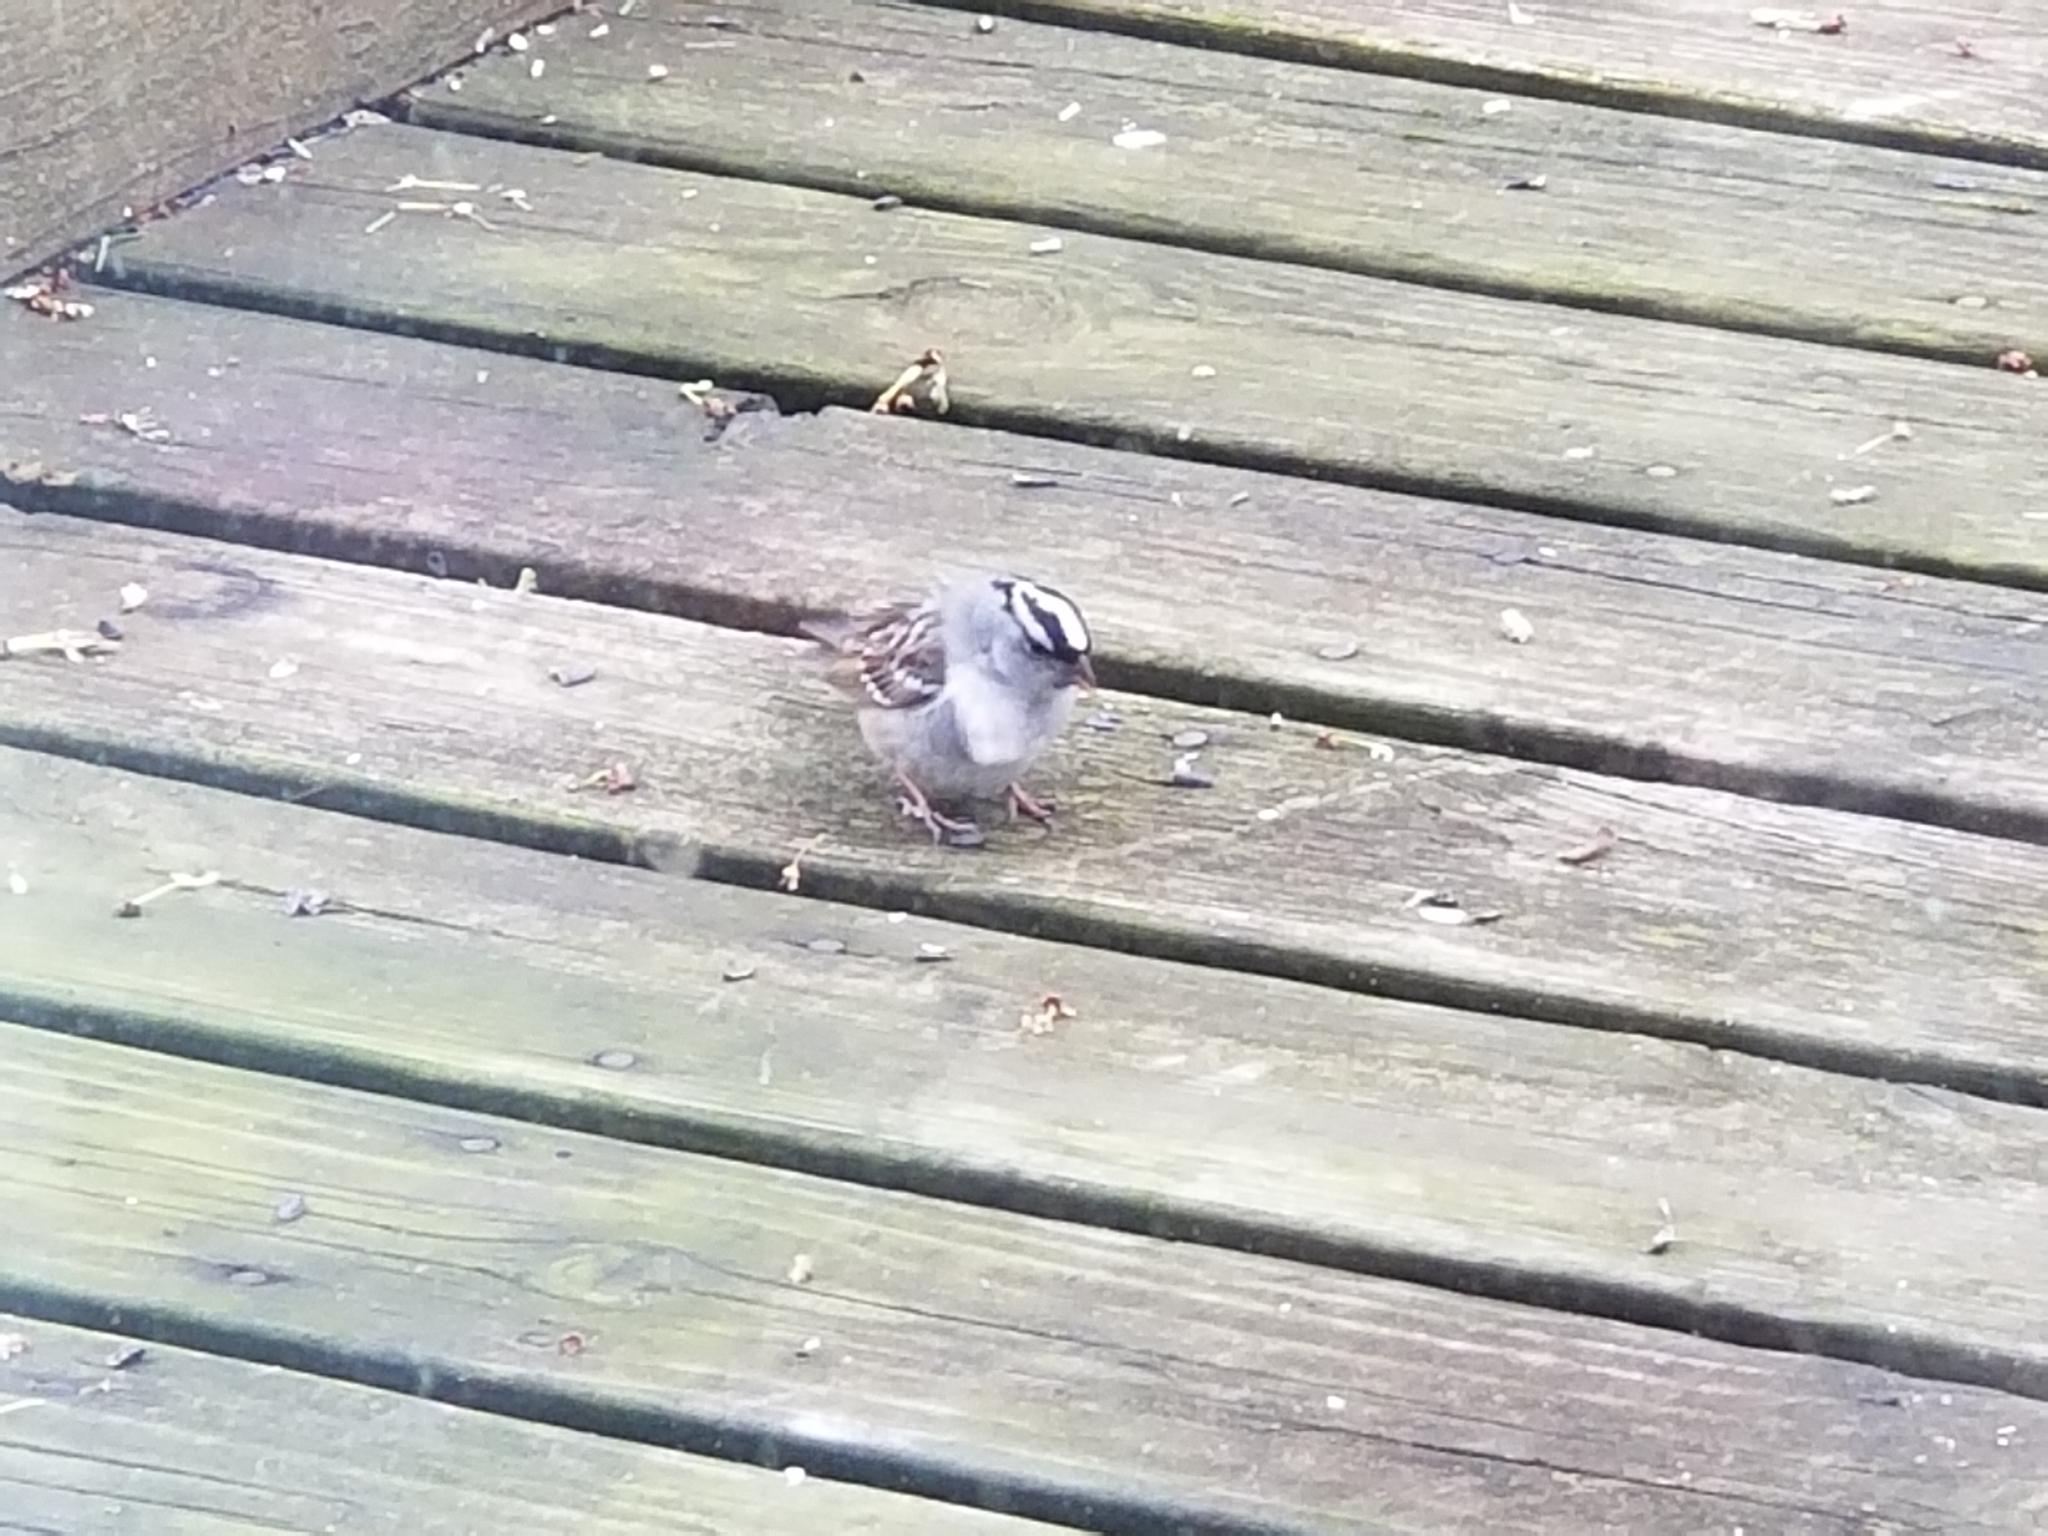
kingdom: Animalia
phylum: Chordata
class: Aves
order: Passeriformes
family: Passerellidae
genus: Zonotrichia
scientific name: Zonotrichia leucophrys
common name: White-crowned sparrow
